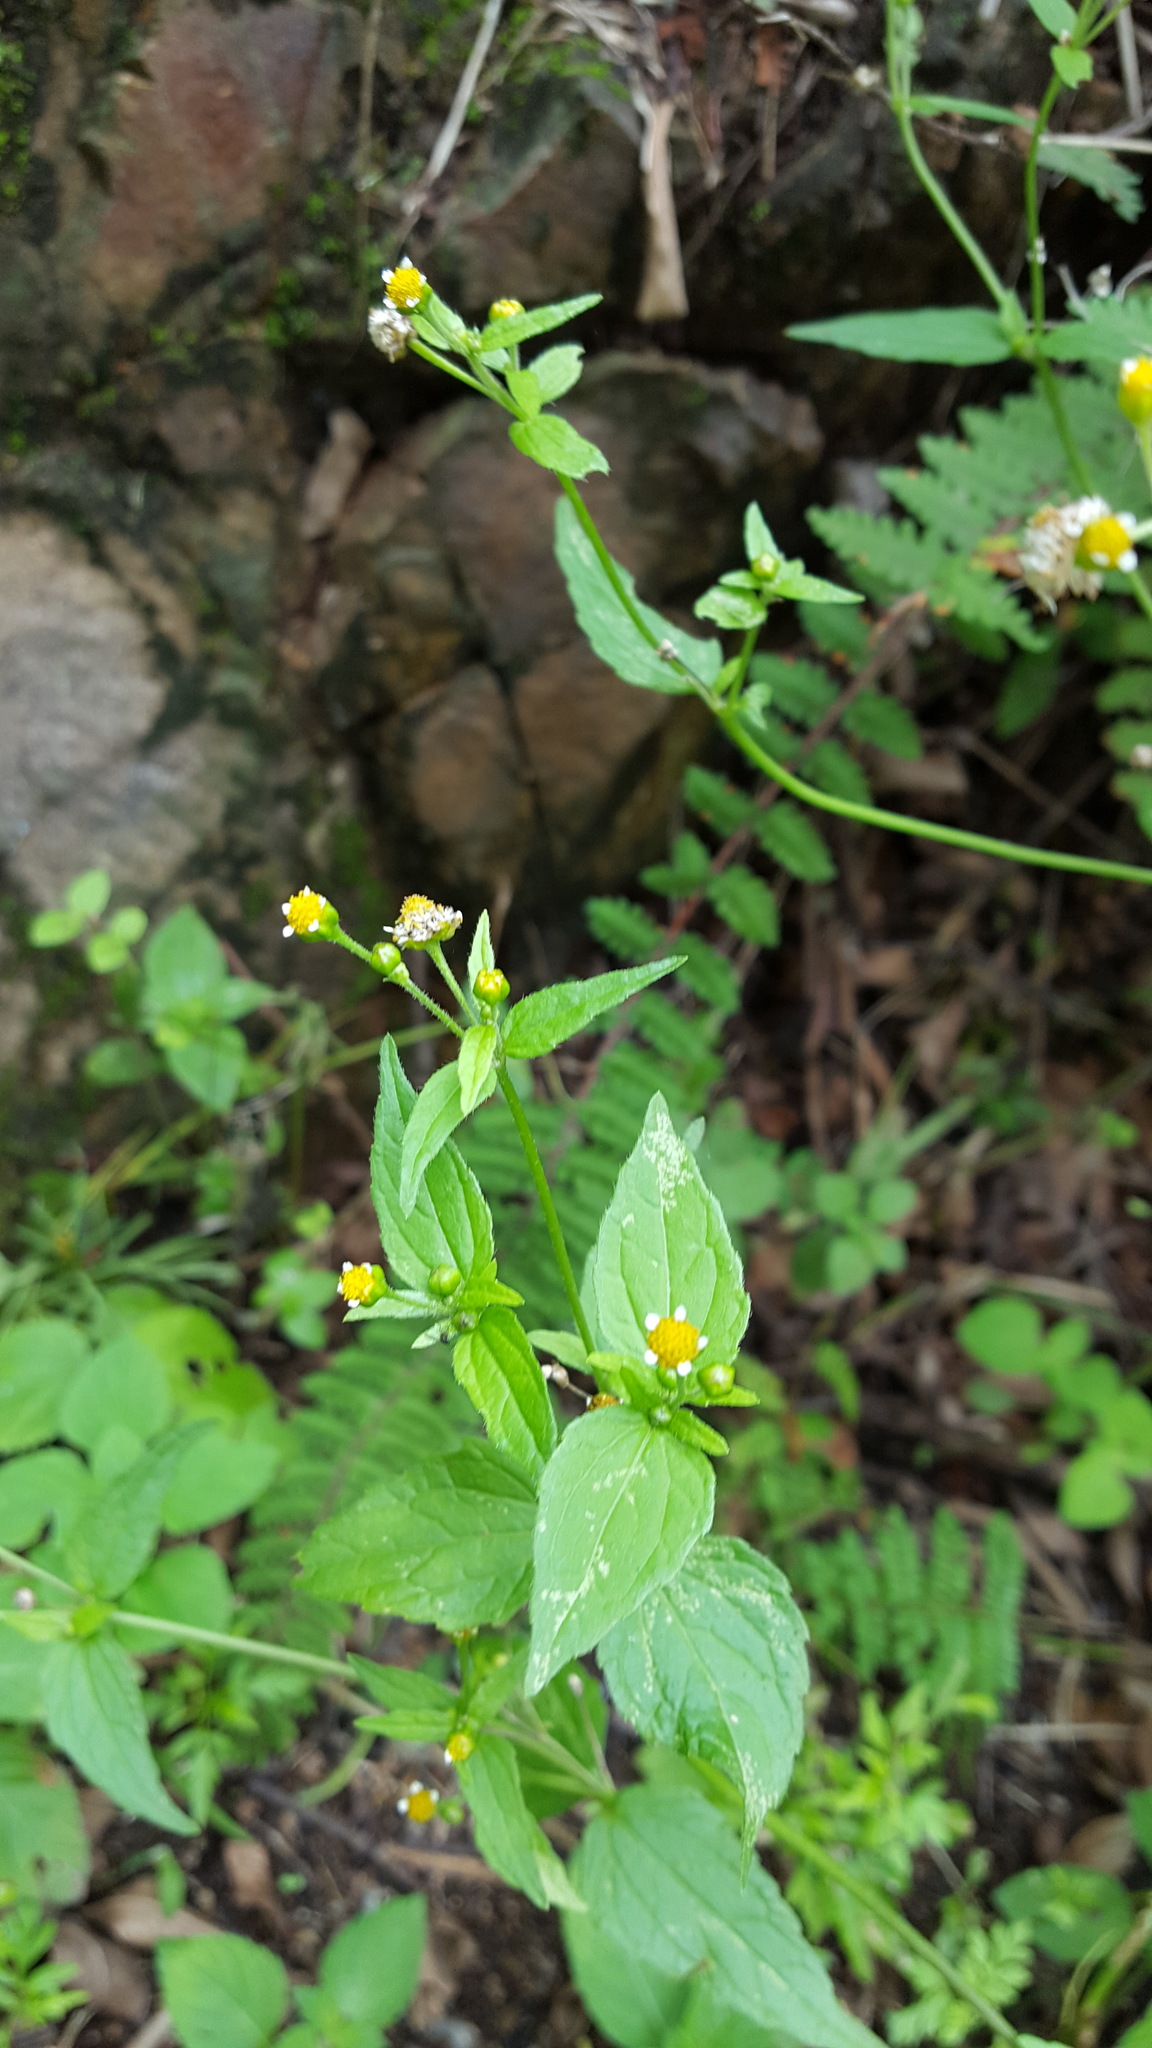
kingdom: Plantae
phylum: Tracheophyta
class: Magnoliopsida
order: Asterales
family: Asteraceae
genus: Galinsoga
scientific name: Galinsoga quadriradiata
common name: Shaggy soldier
